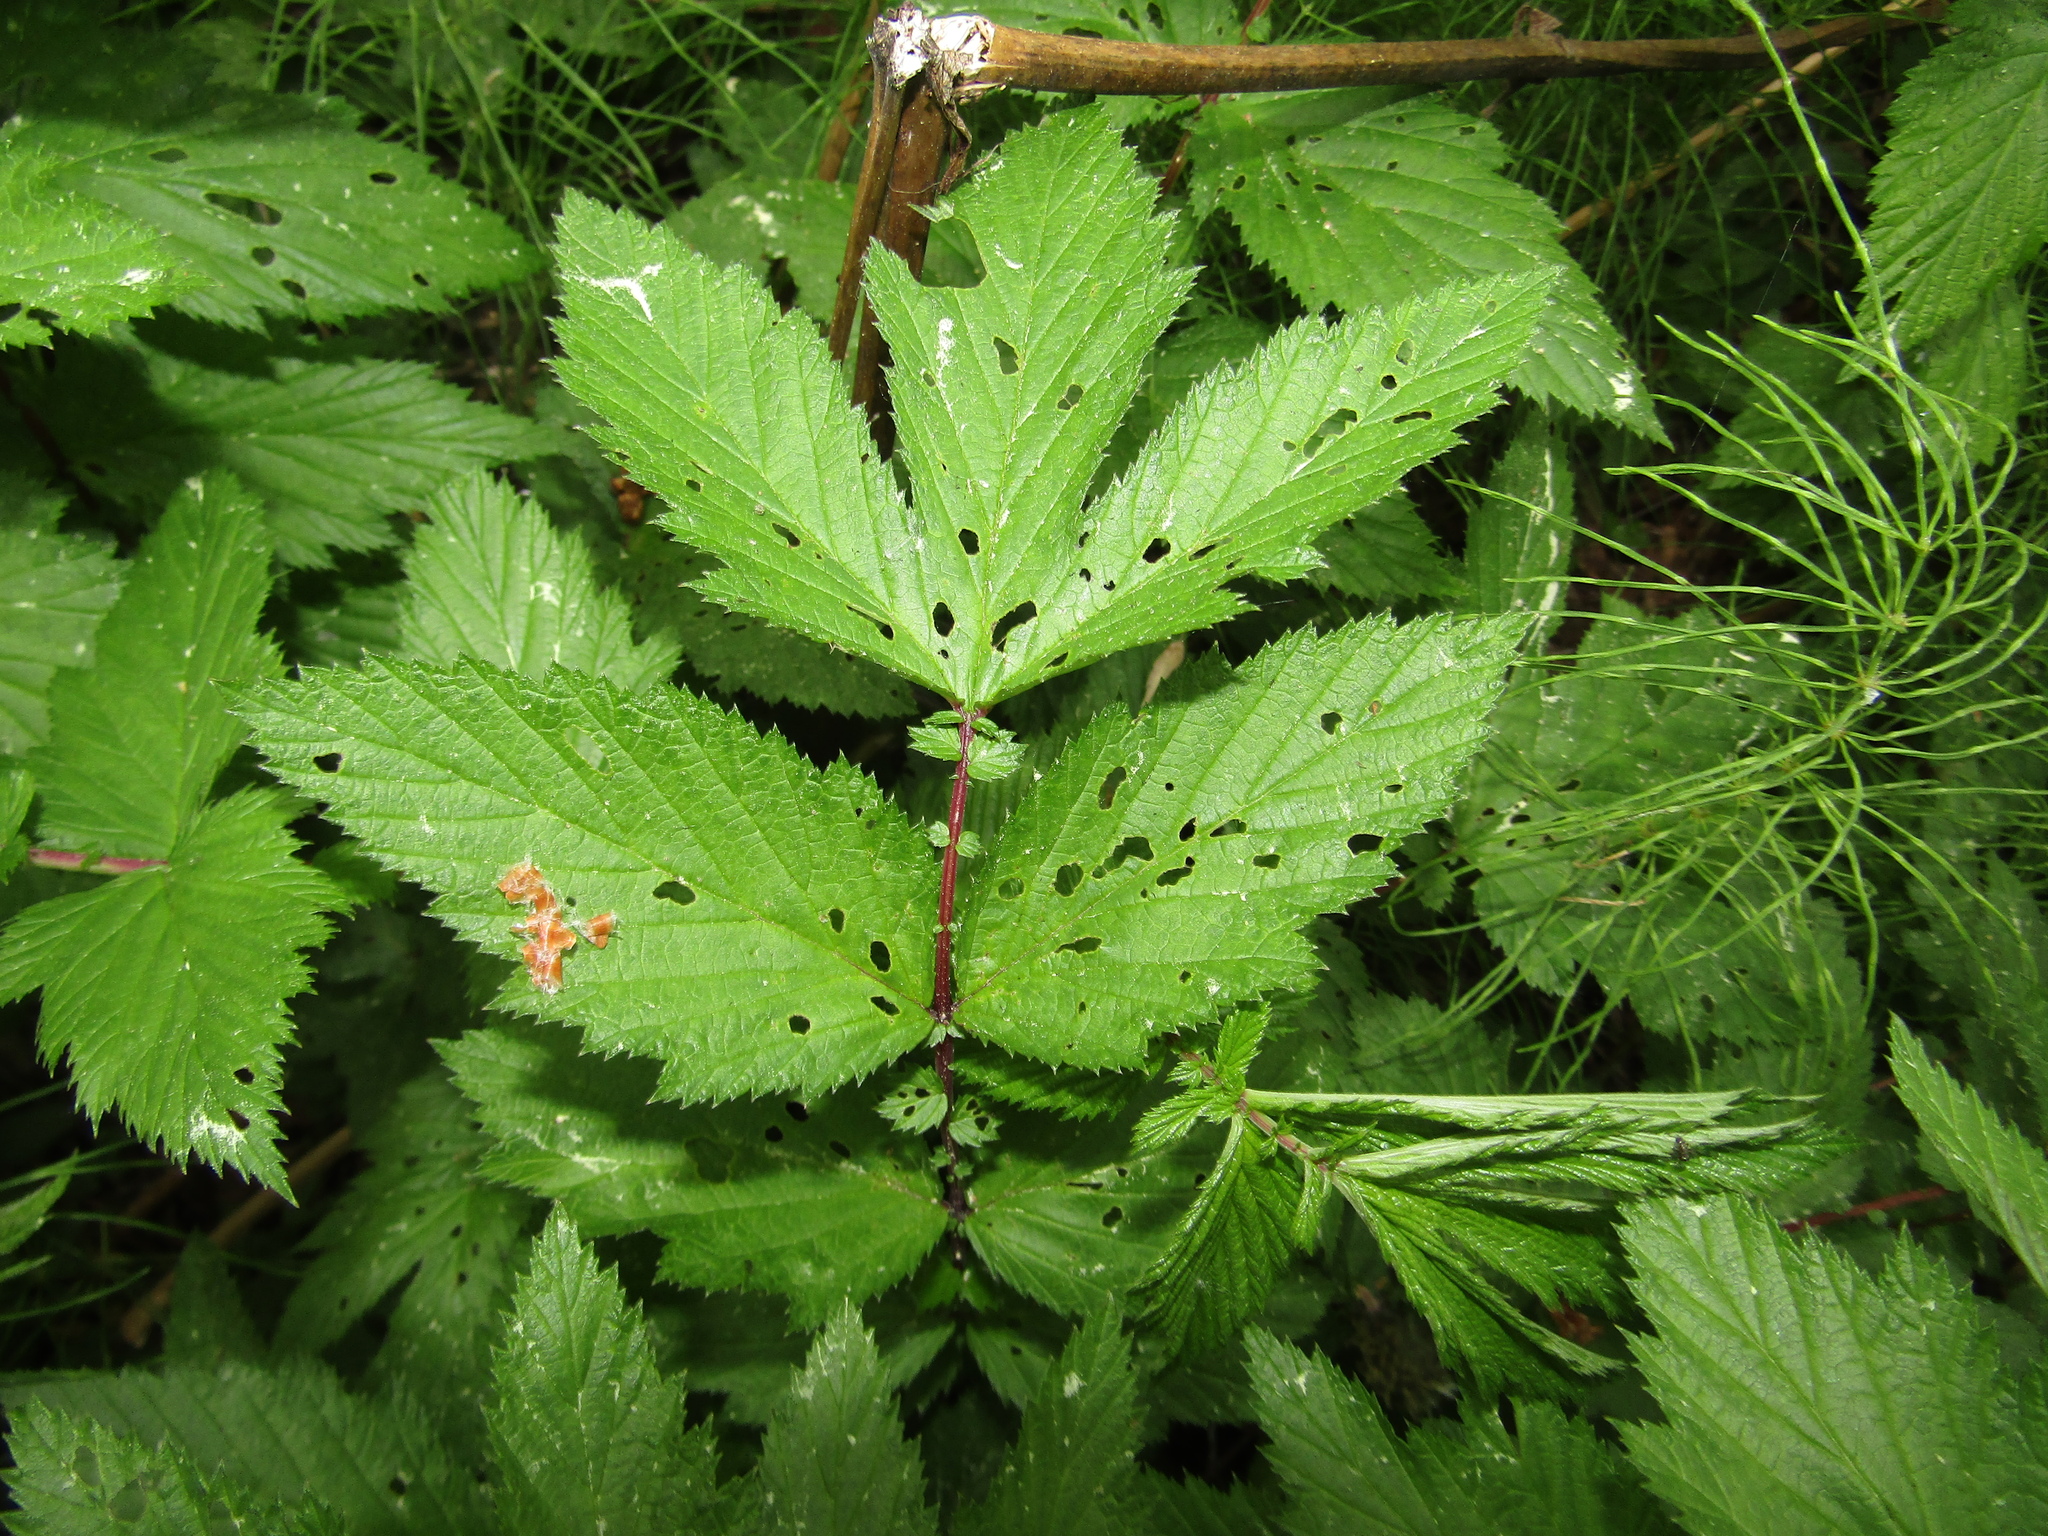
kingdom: Plantae
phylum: Tracheophyta
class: Magnoliopsida
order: Rosales
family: Rosaceae
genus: Filipendula
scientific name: Filipendula ulmaria
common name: Meadowsweet
